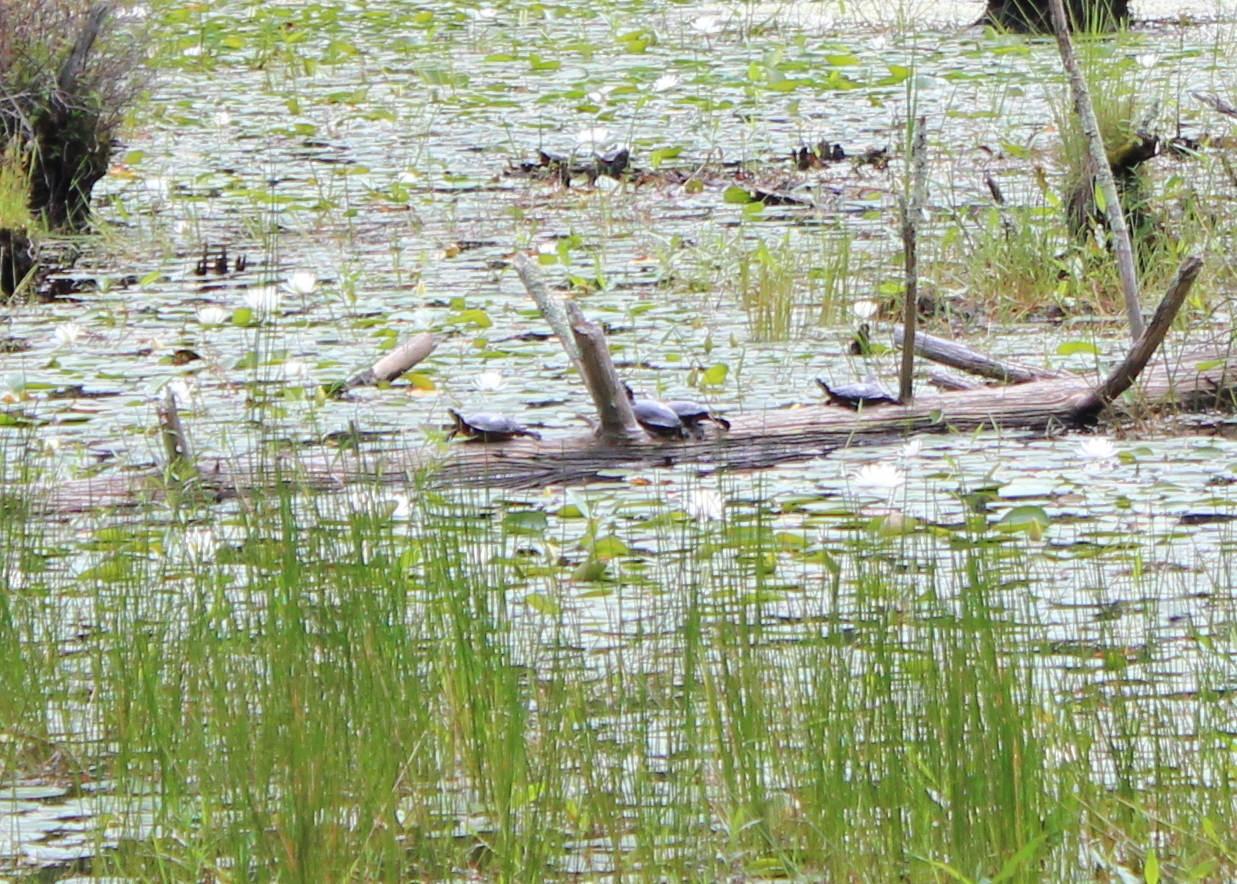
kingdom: Animalia
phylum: Chordata
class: Testudines
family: Emydidae
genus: Chrysemys
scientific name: Chrysemys picta
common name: Painted turtle
